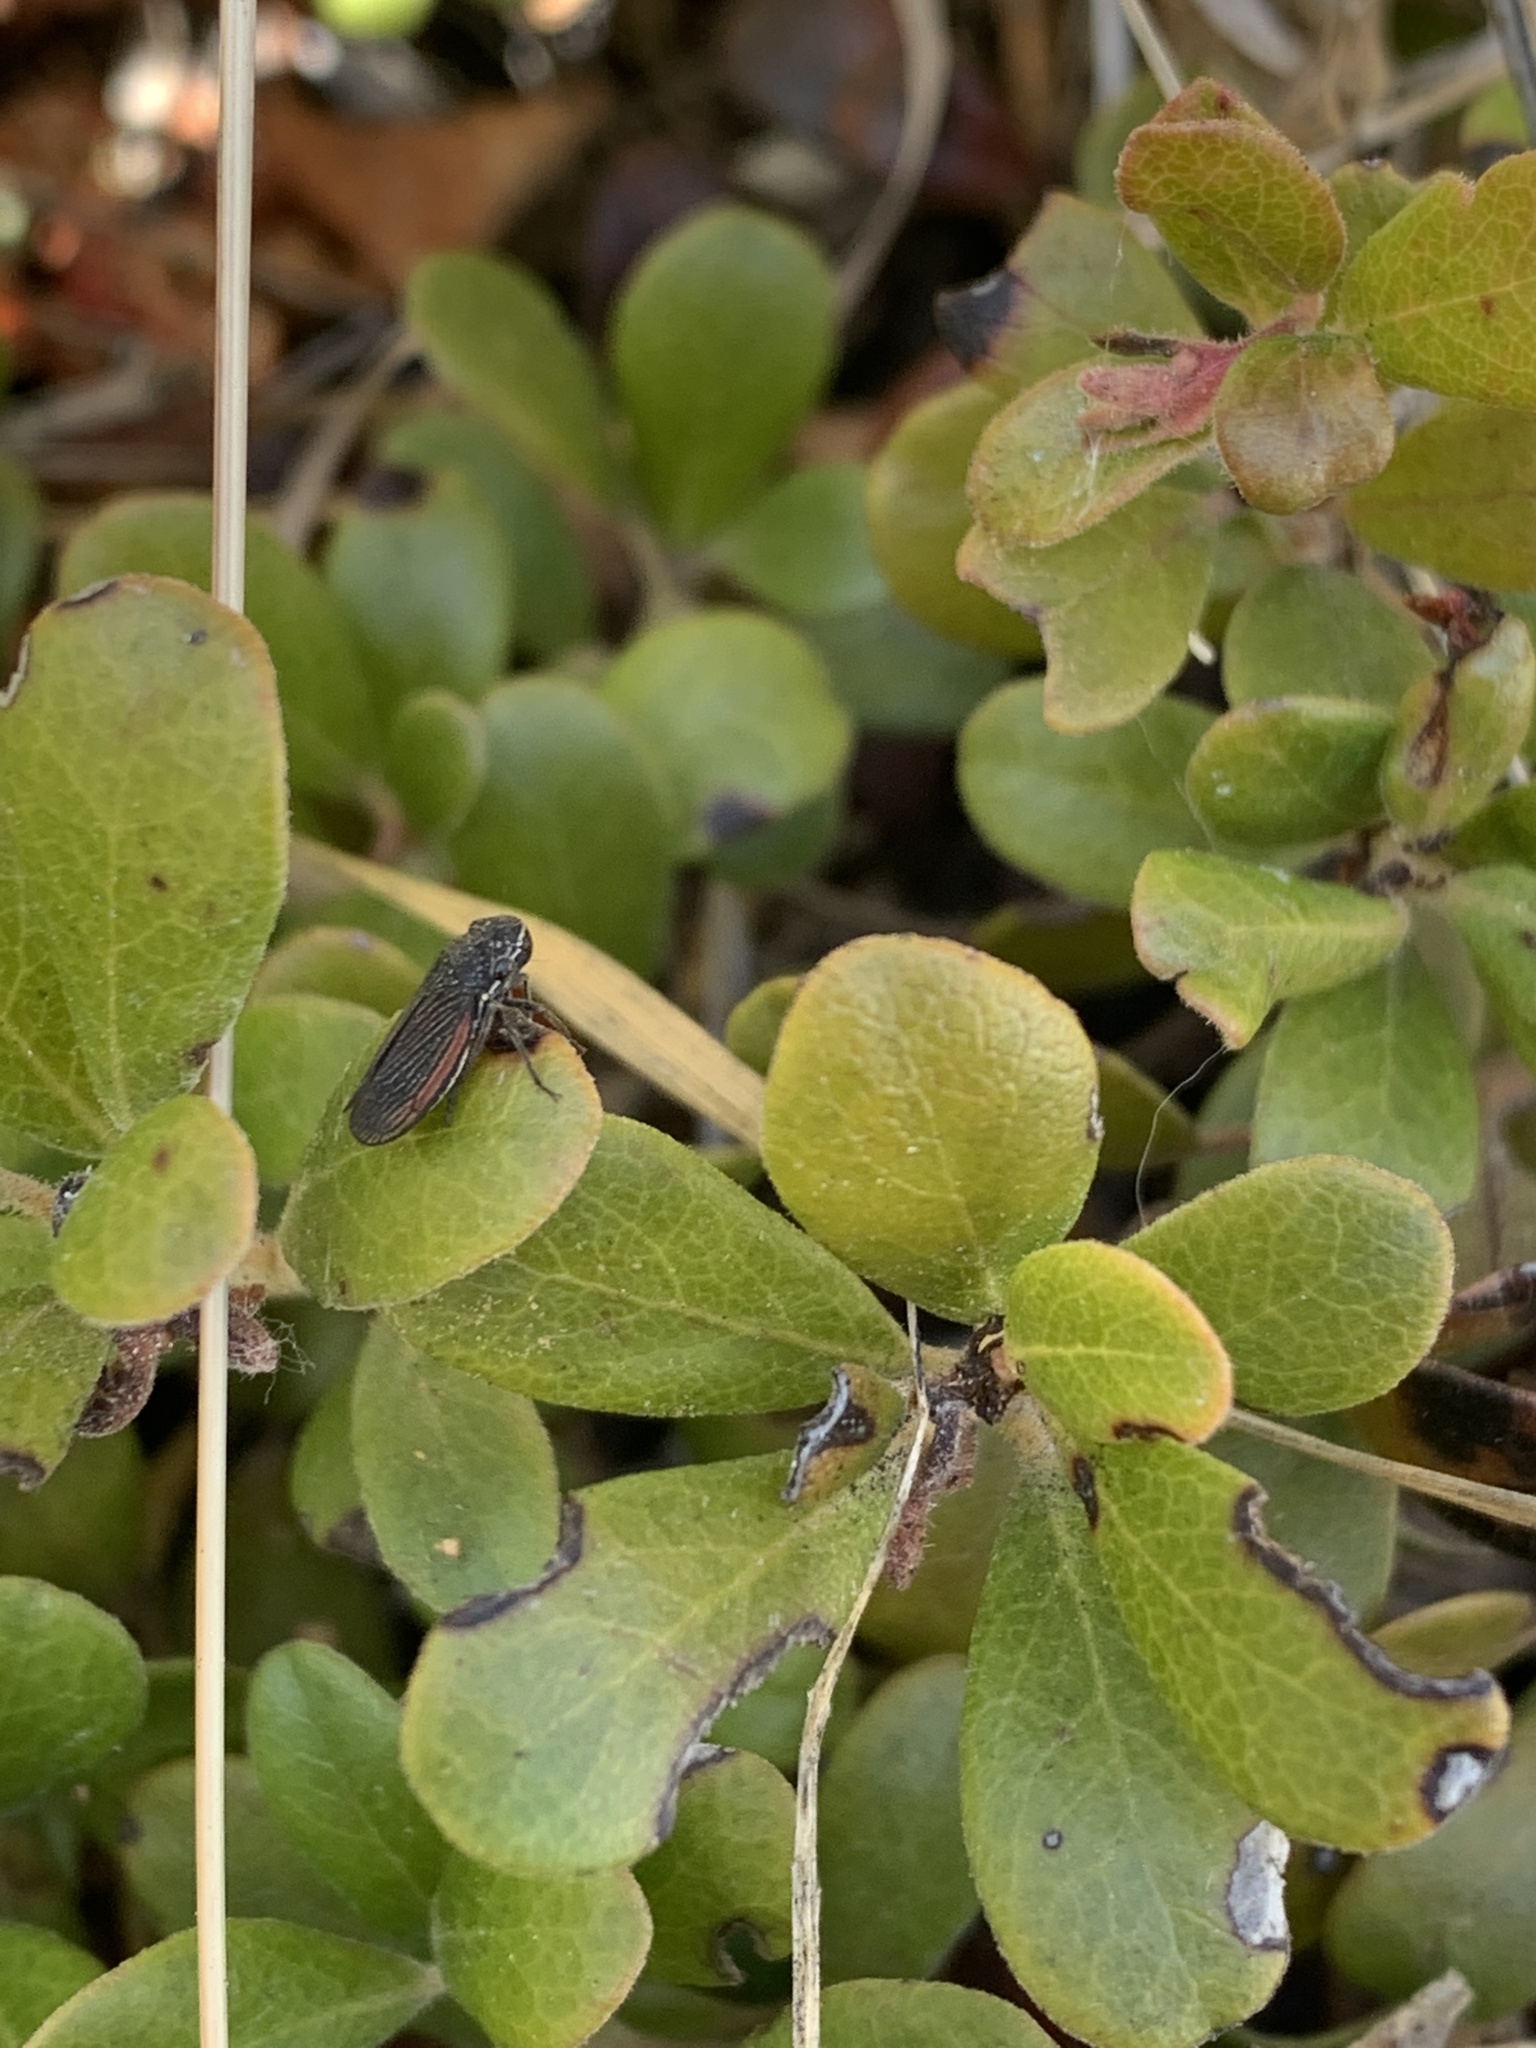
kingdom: Animalia
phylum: Arthropoda
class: Insecta
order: Hemiptera
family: Cicadellidae
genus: Cuerna
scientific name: Cuerna striata
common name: Striped leafhopper
